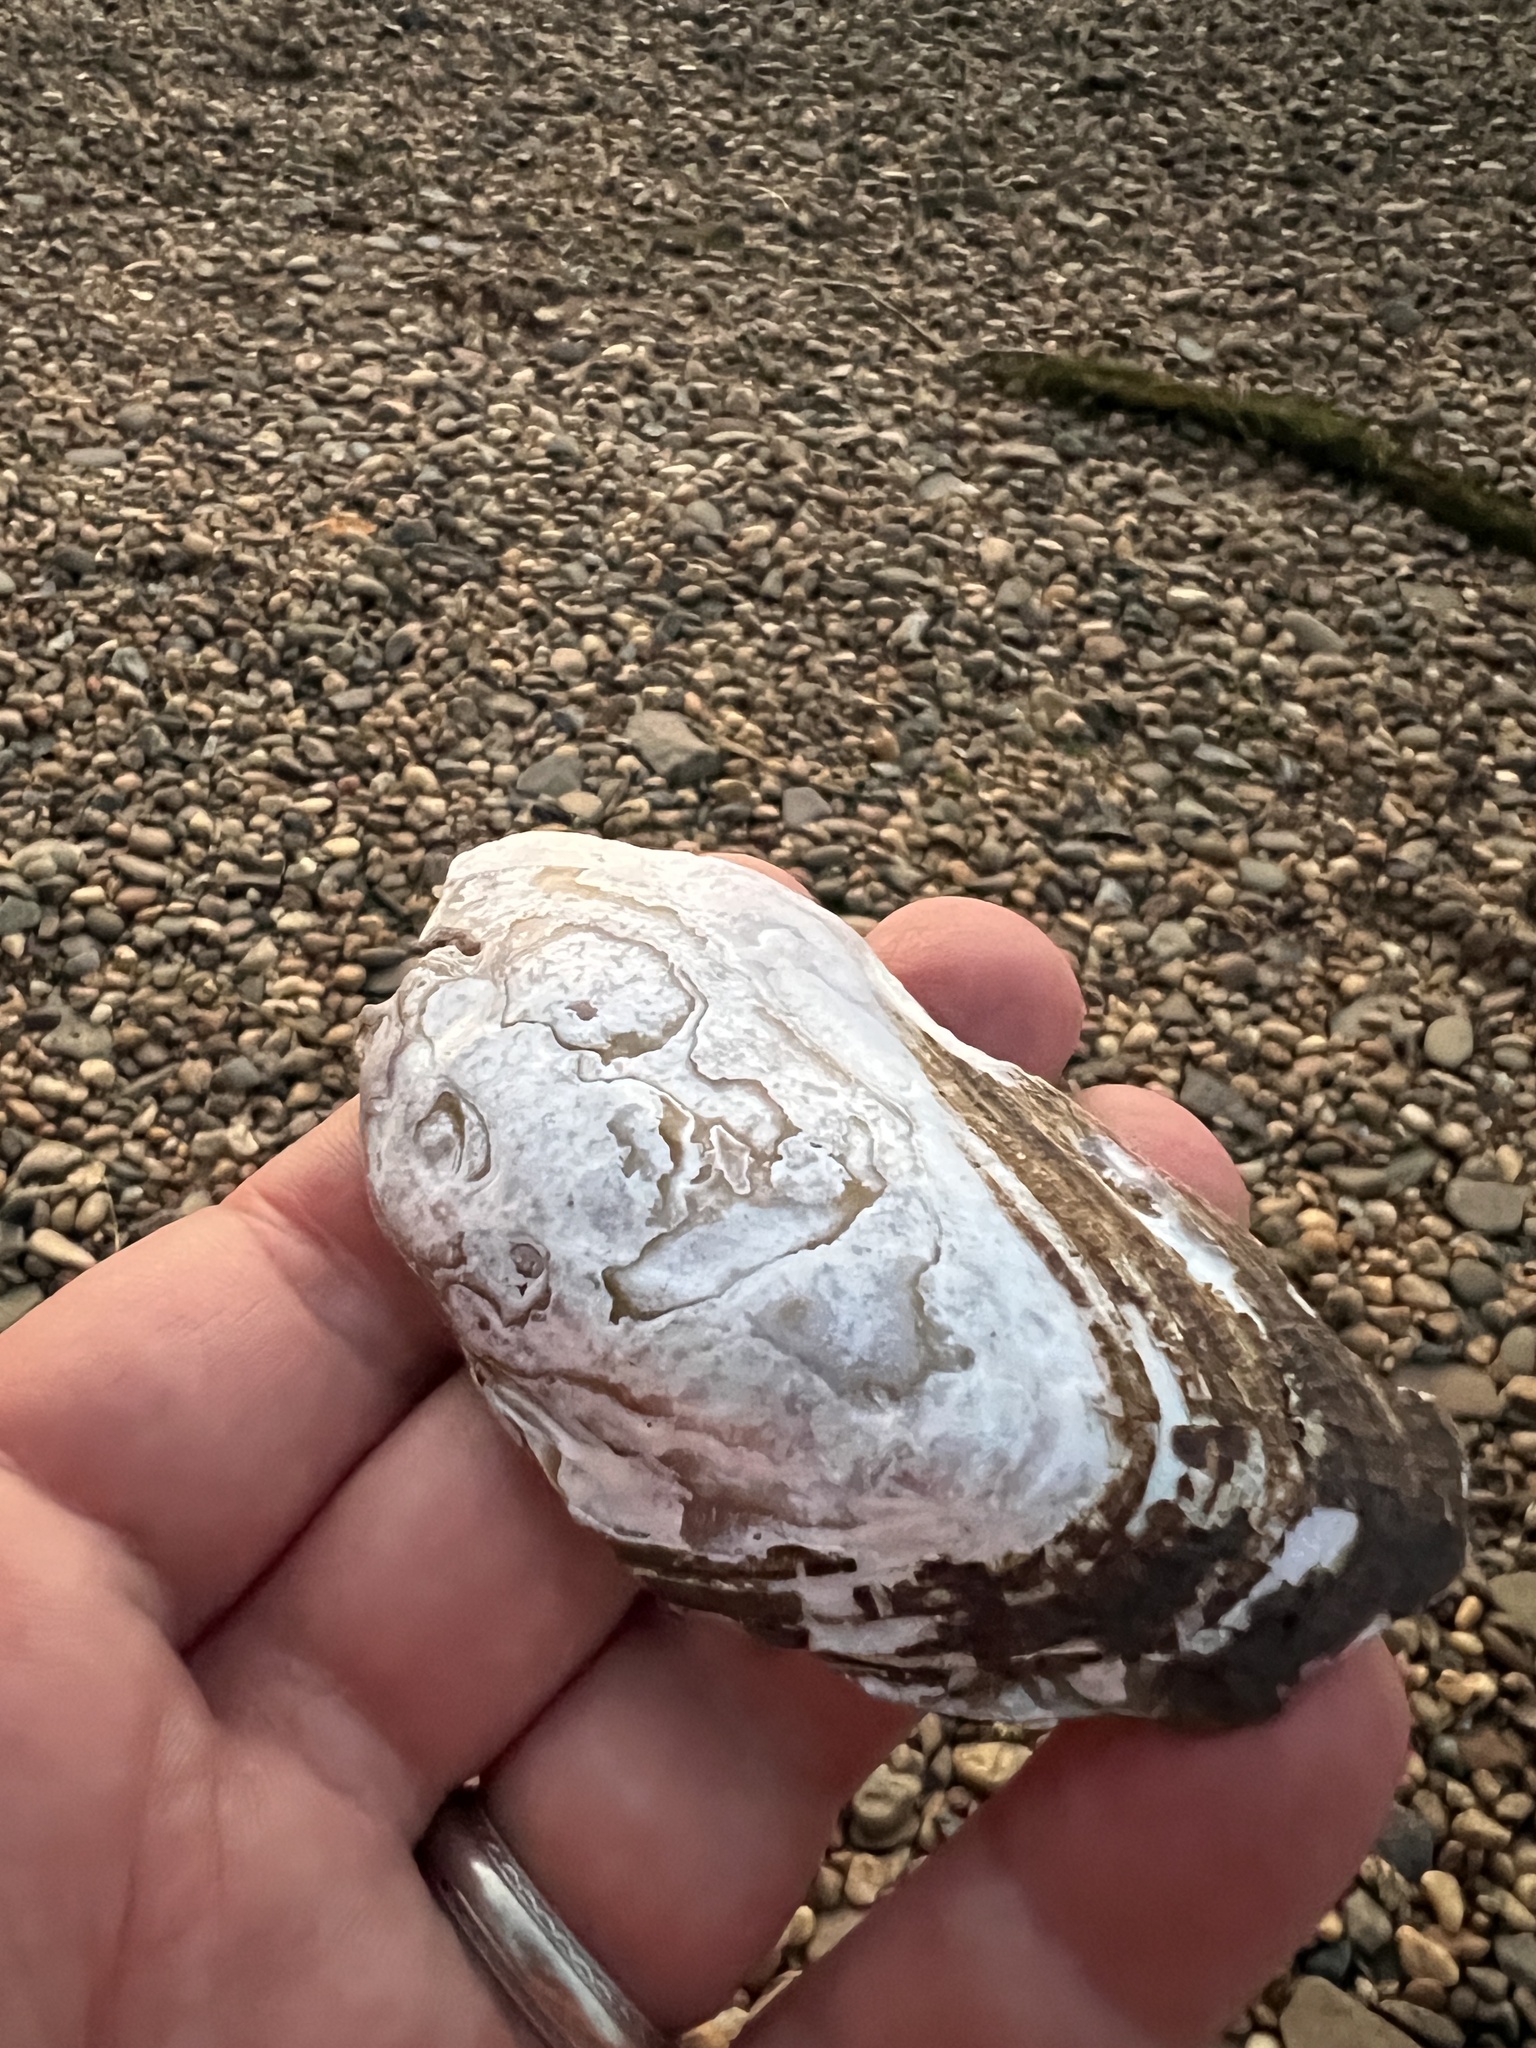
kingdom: Animalia
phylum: Mollusca
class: Bivalvia
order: Unionida
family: Unionidae
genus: Elliptio
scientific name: Elliptio complanata
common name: Eastern elliptio
